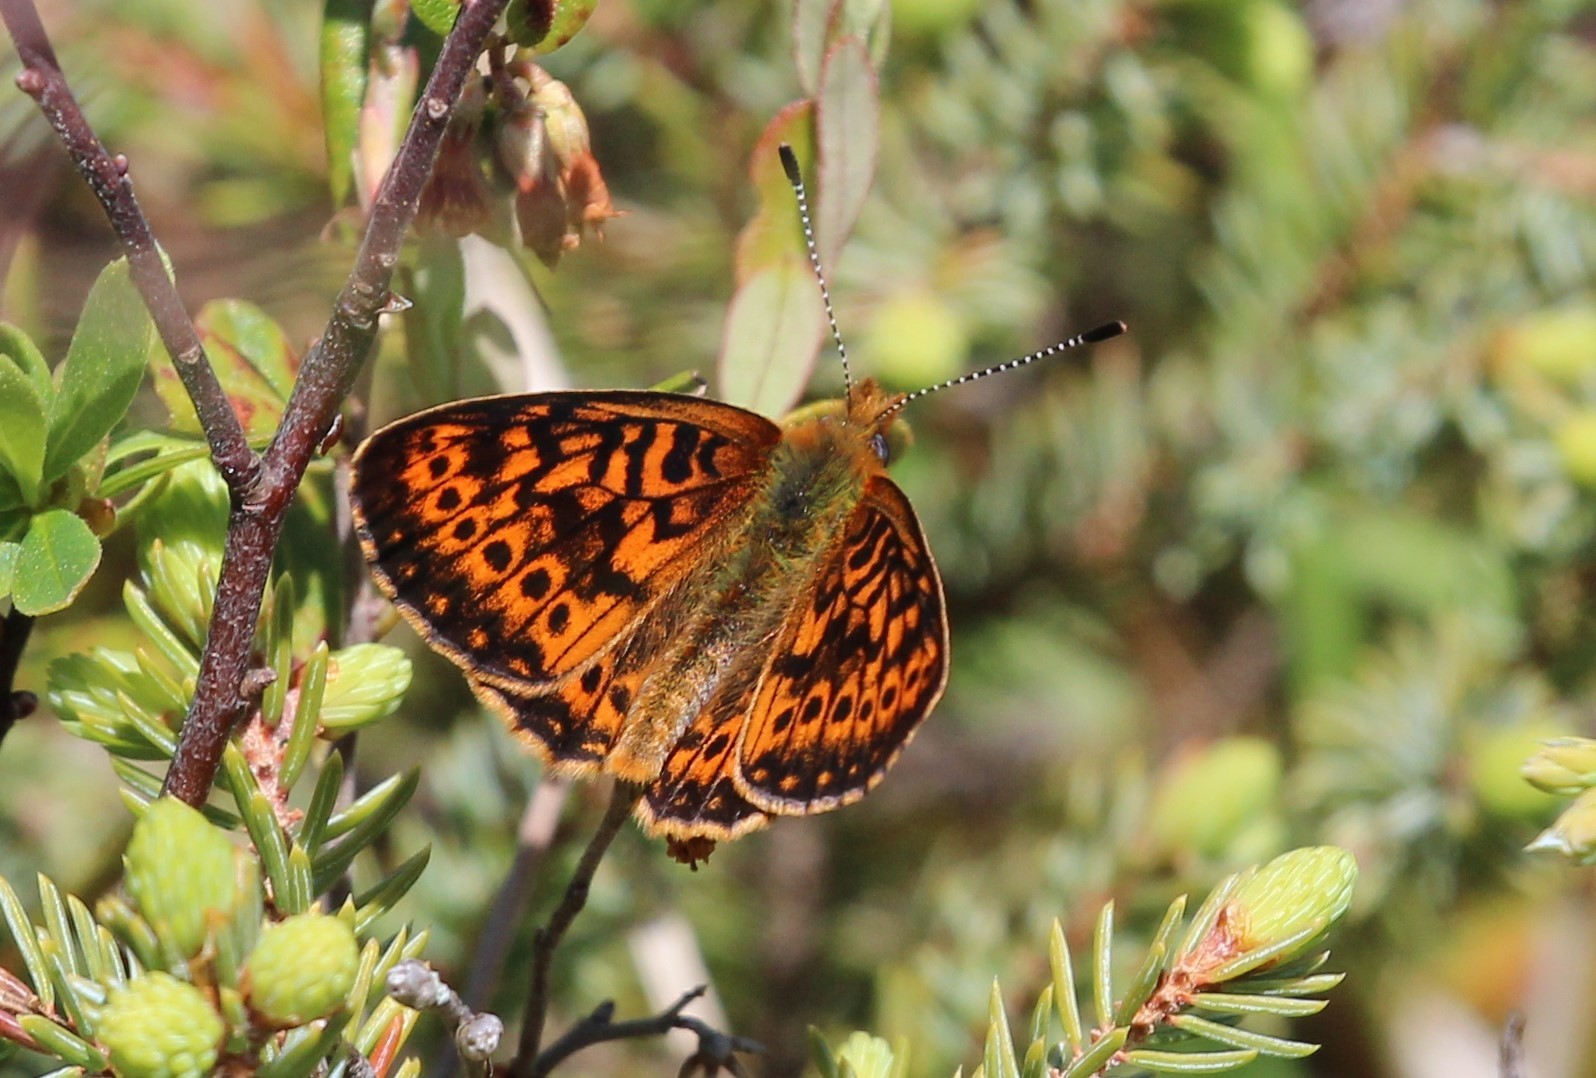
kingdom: Animalia
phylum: Arthropoda
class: Insecta
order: Lepidoptera
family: Nymphalidae
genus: Boloria
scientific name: Boloria eunomia
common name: Bog fritillary
